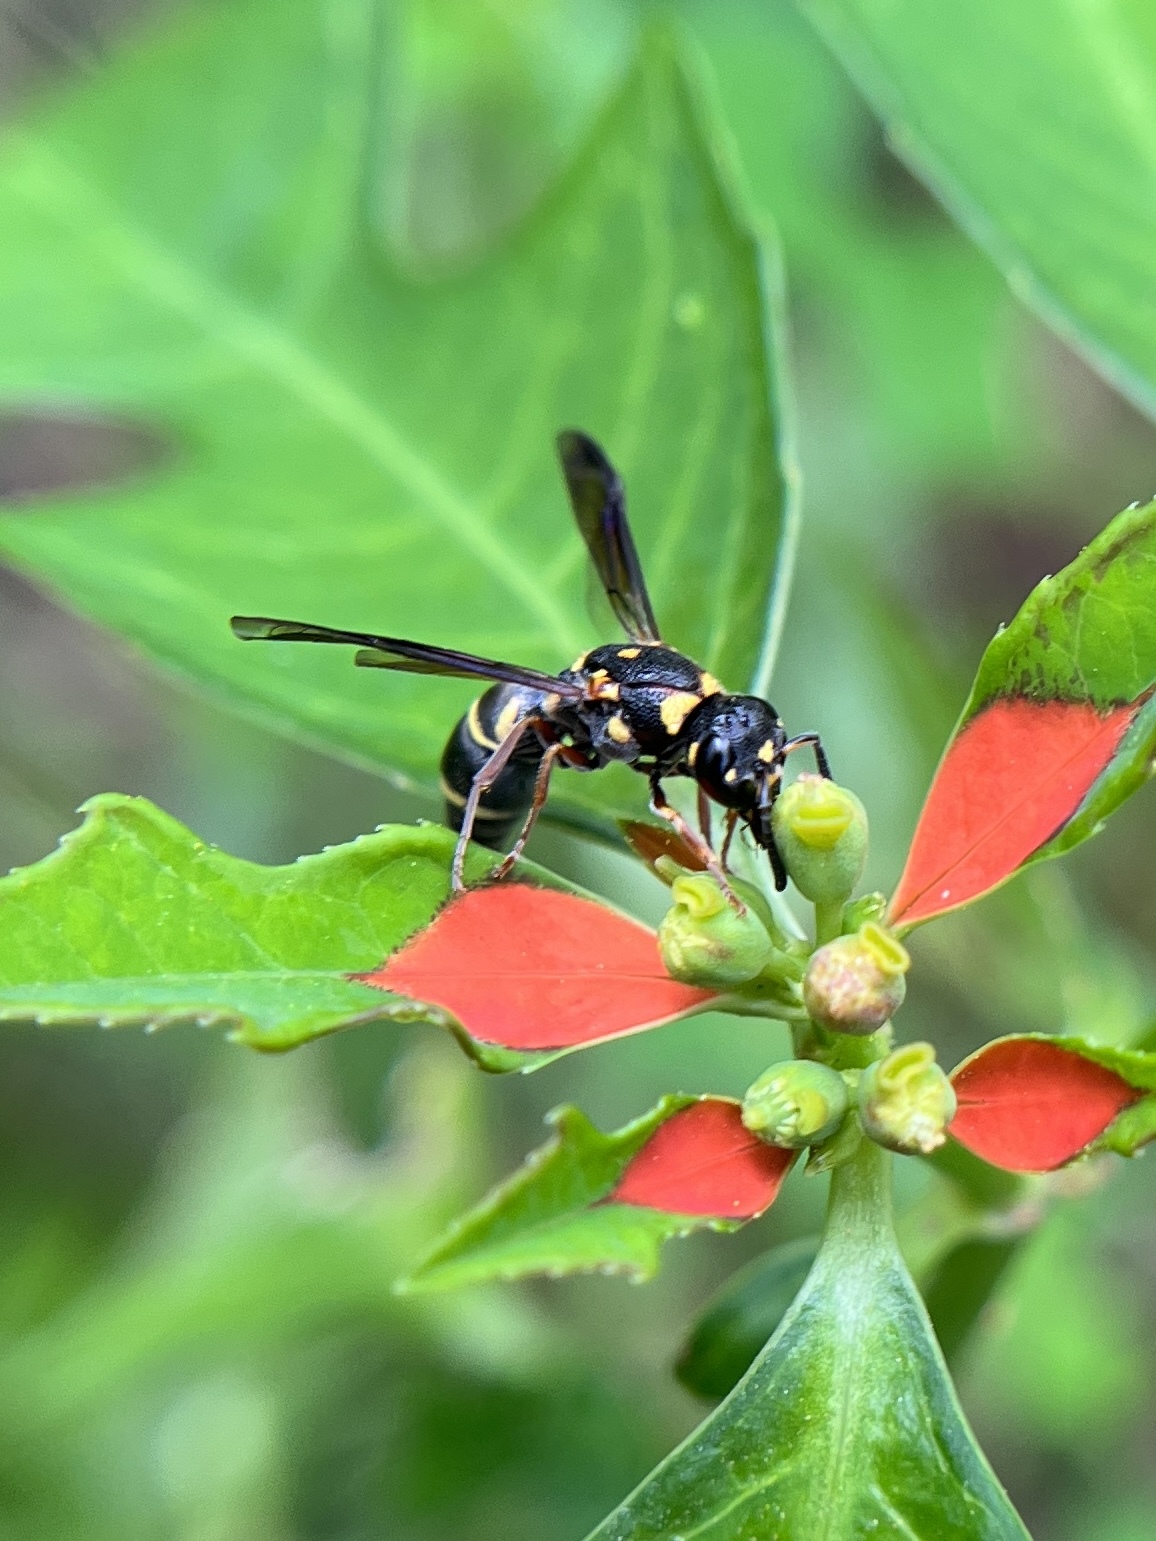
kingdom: Animalia
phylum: Arthropoda
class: Insecta
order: Hymenoptera
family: Eumenidae
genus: Parancistrocerus
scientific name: Parancistrocerus fulvipes
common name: Potter wasp
